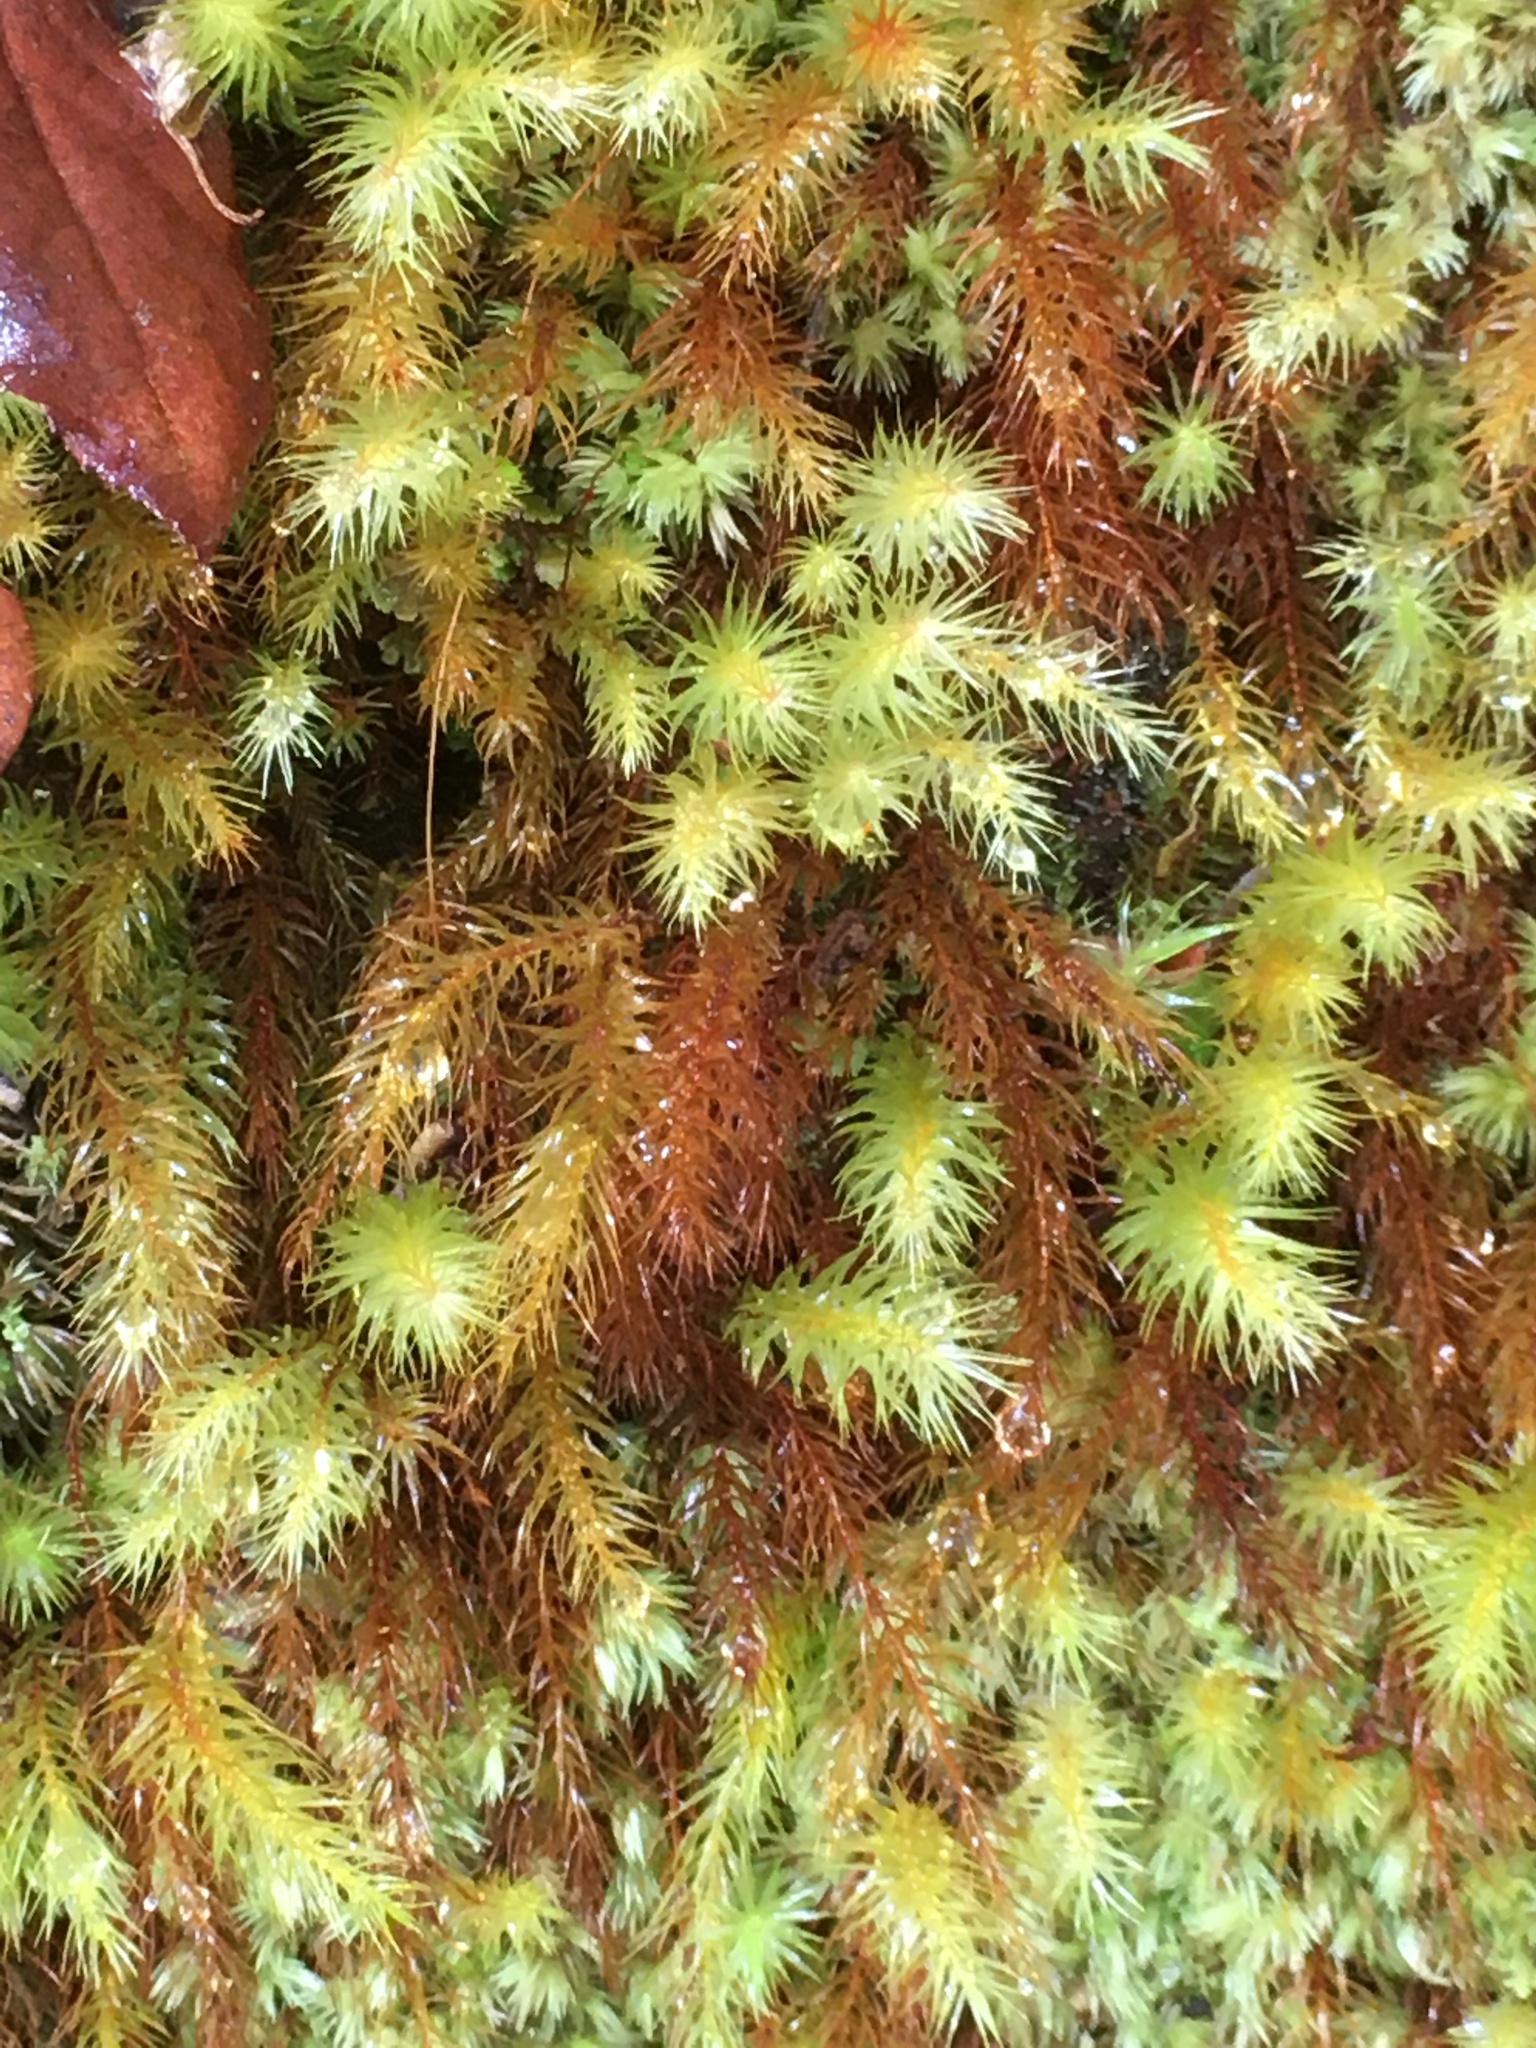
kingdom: Plantae
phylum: Bryophyta
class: Bryopsida
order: Rhizogoniales
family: Calomniaceae
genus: Pyrrhobryum
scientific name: Pyrrhobryum spiniforme
